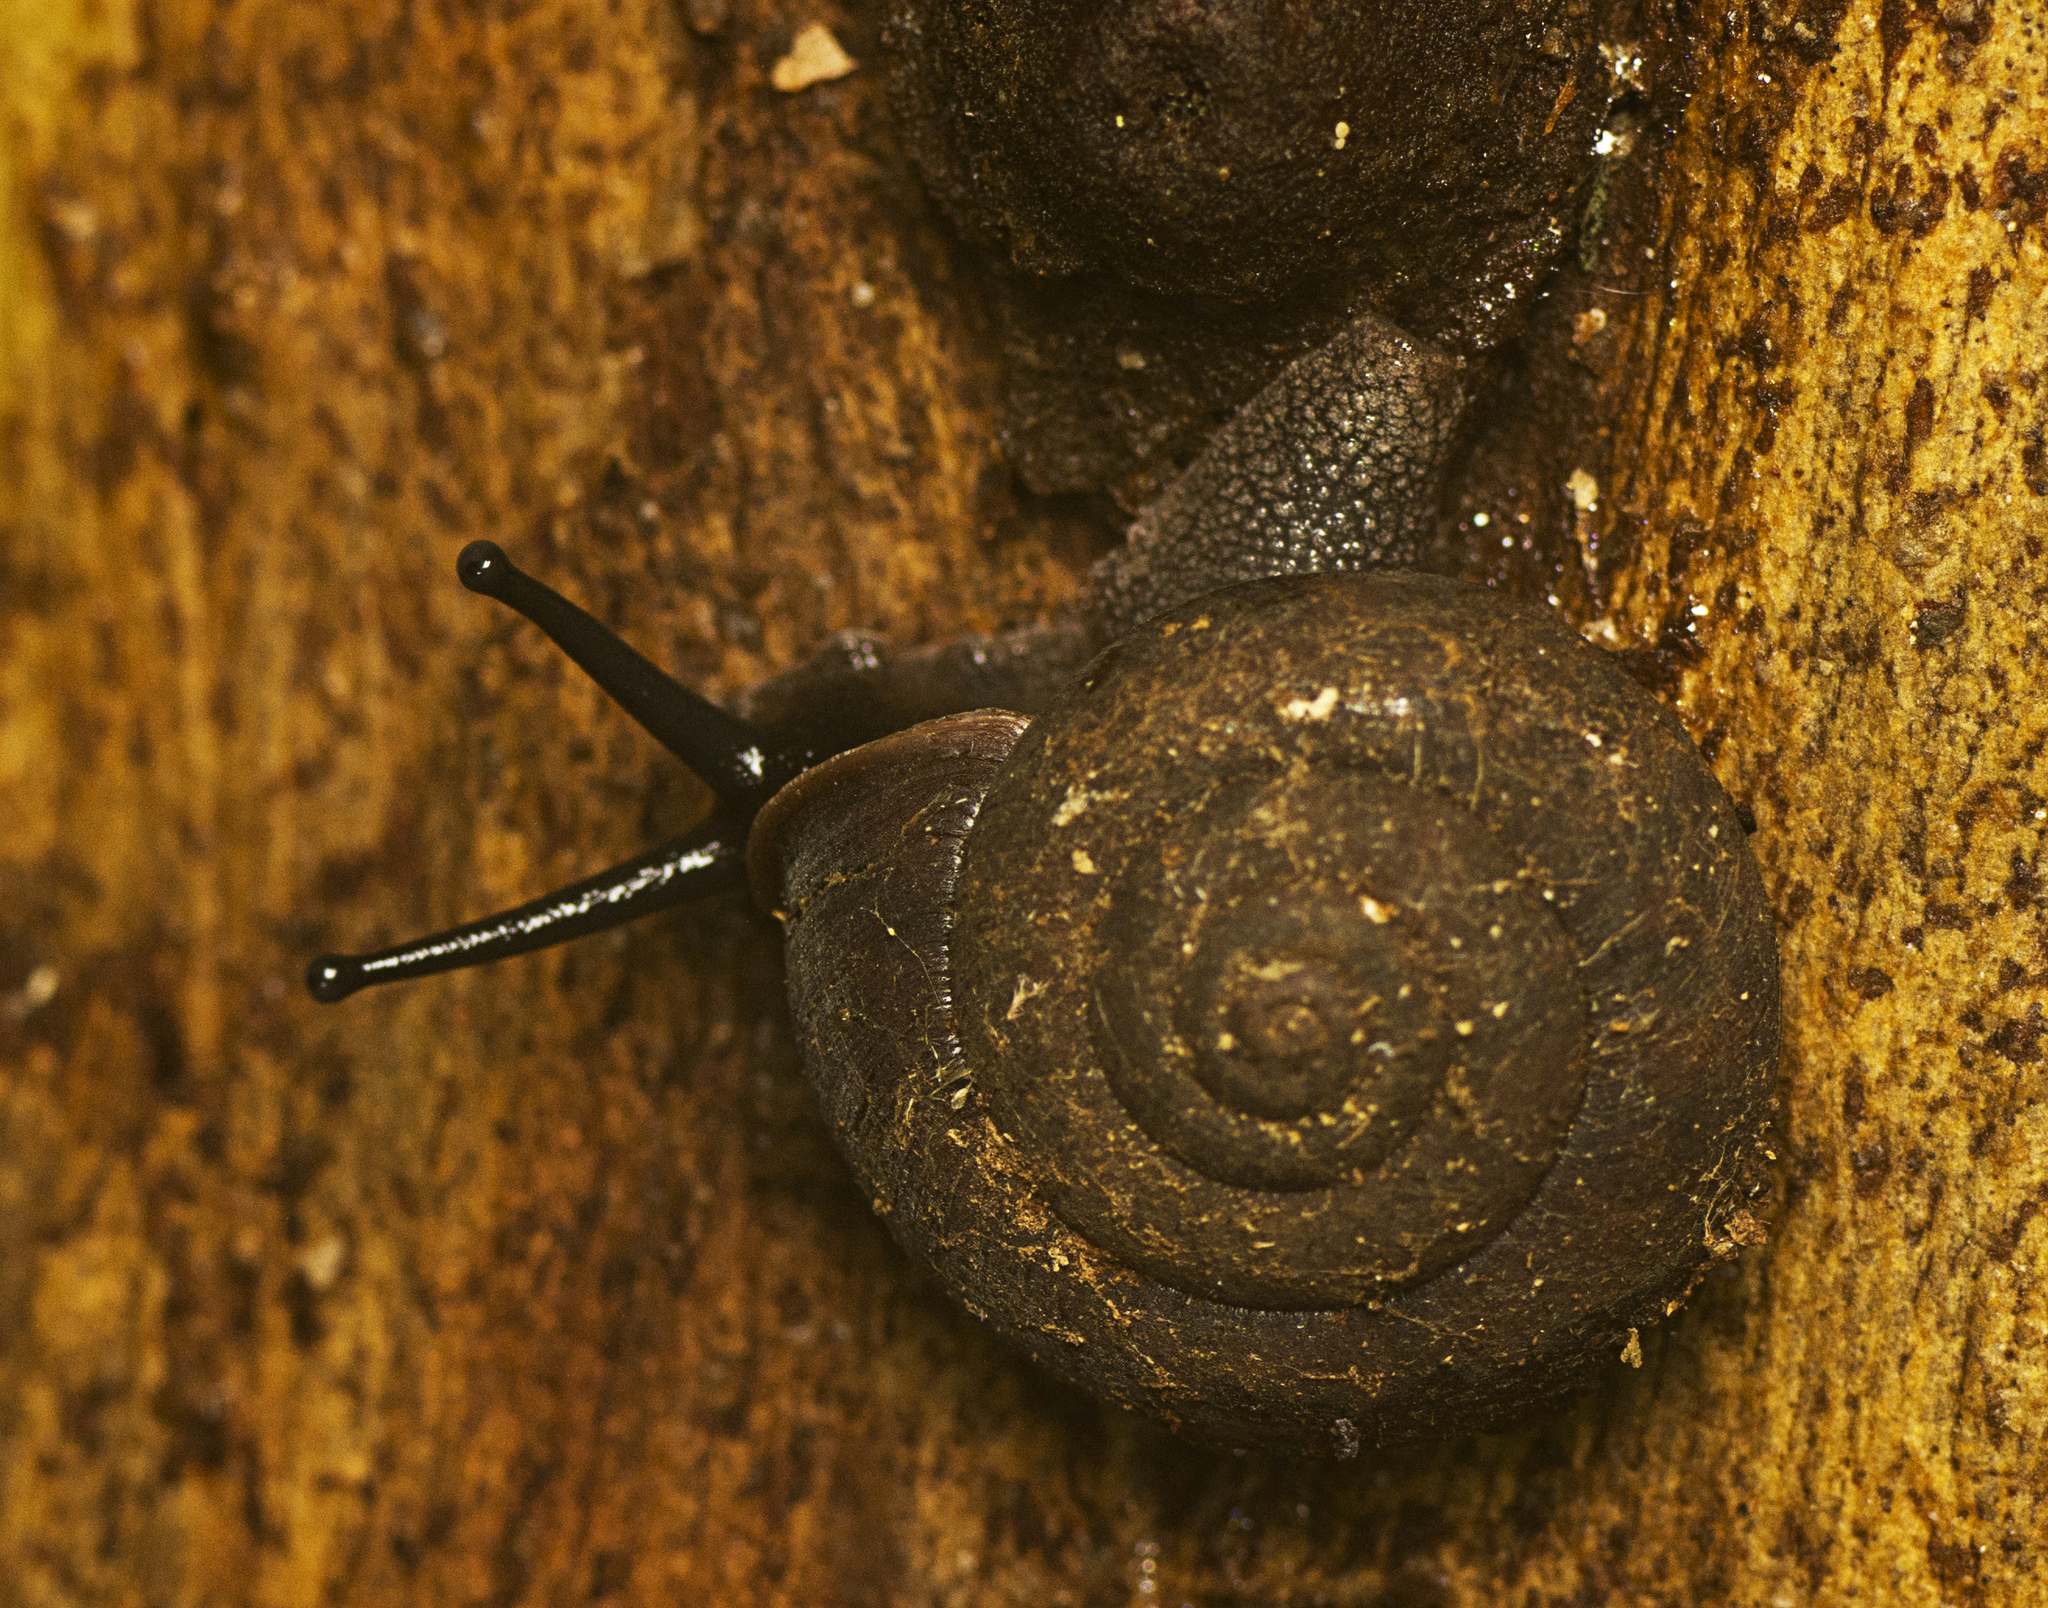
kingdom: Animalia
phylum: Mollusca
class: Gastropoda
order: Stylommatophora
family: Camaenidae
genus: Ramogenia
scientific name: Ramogenia challengeri
